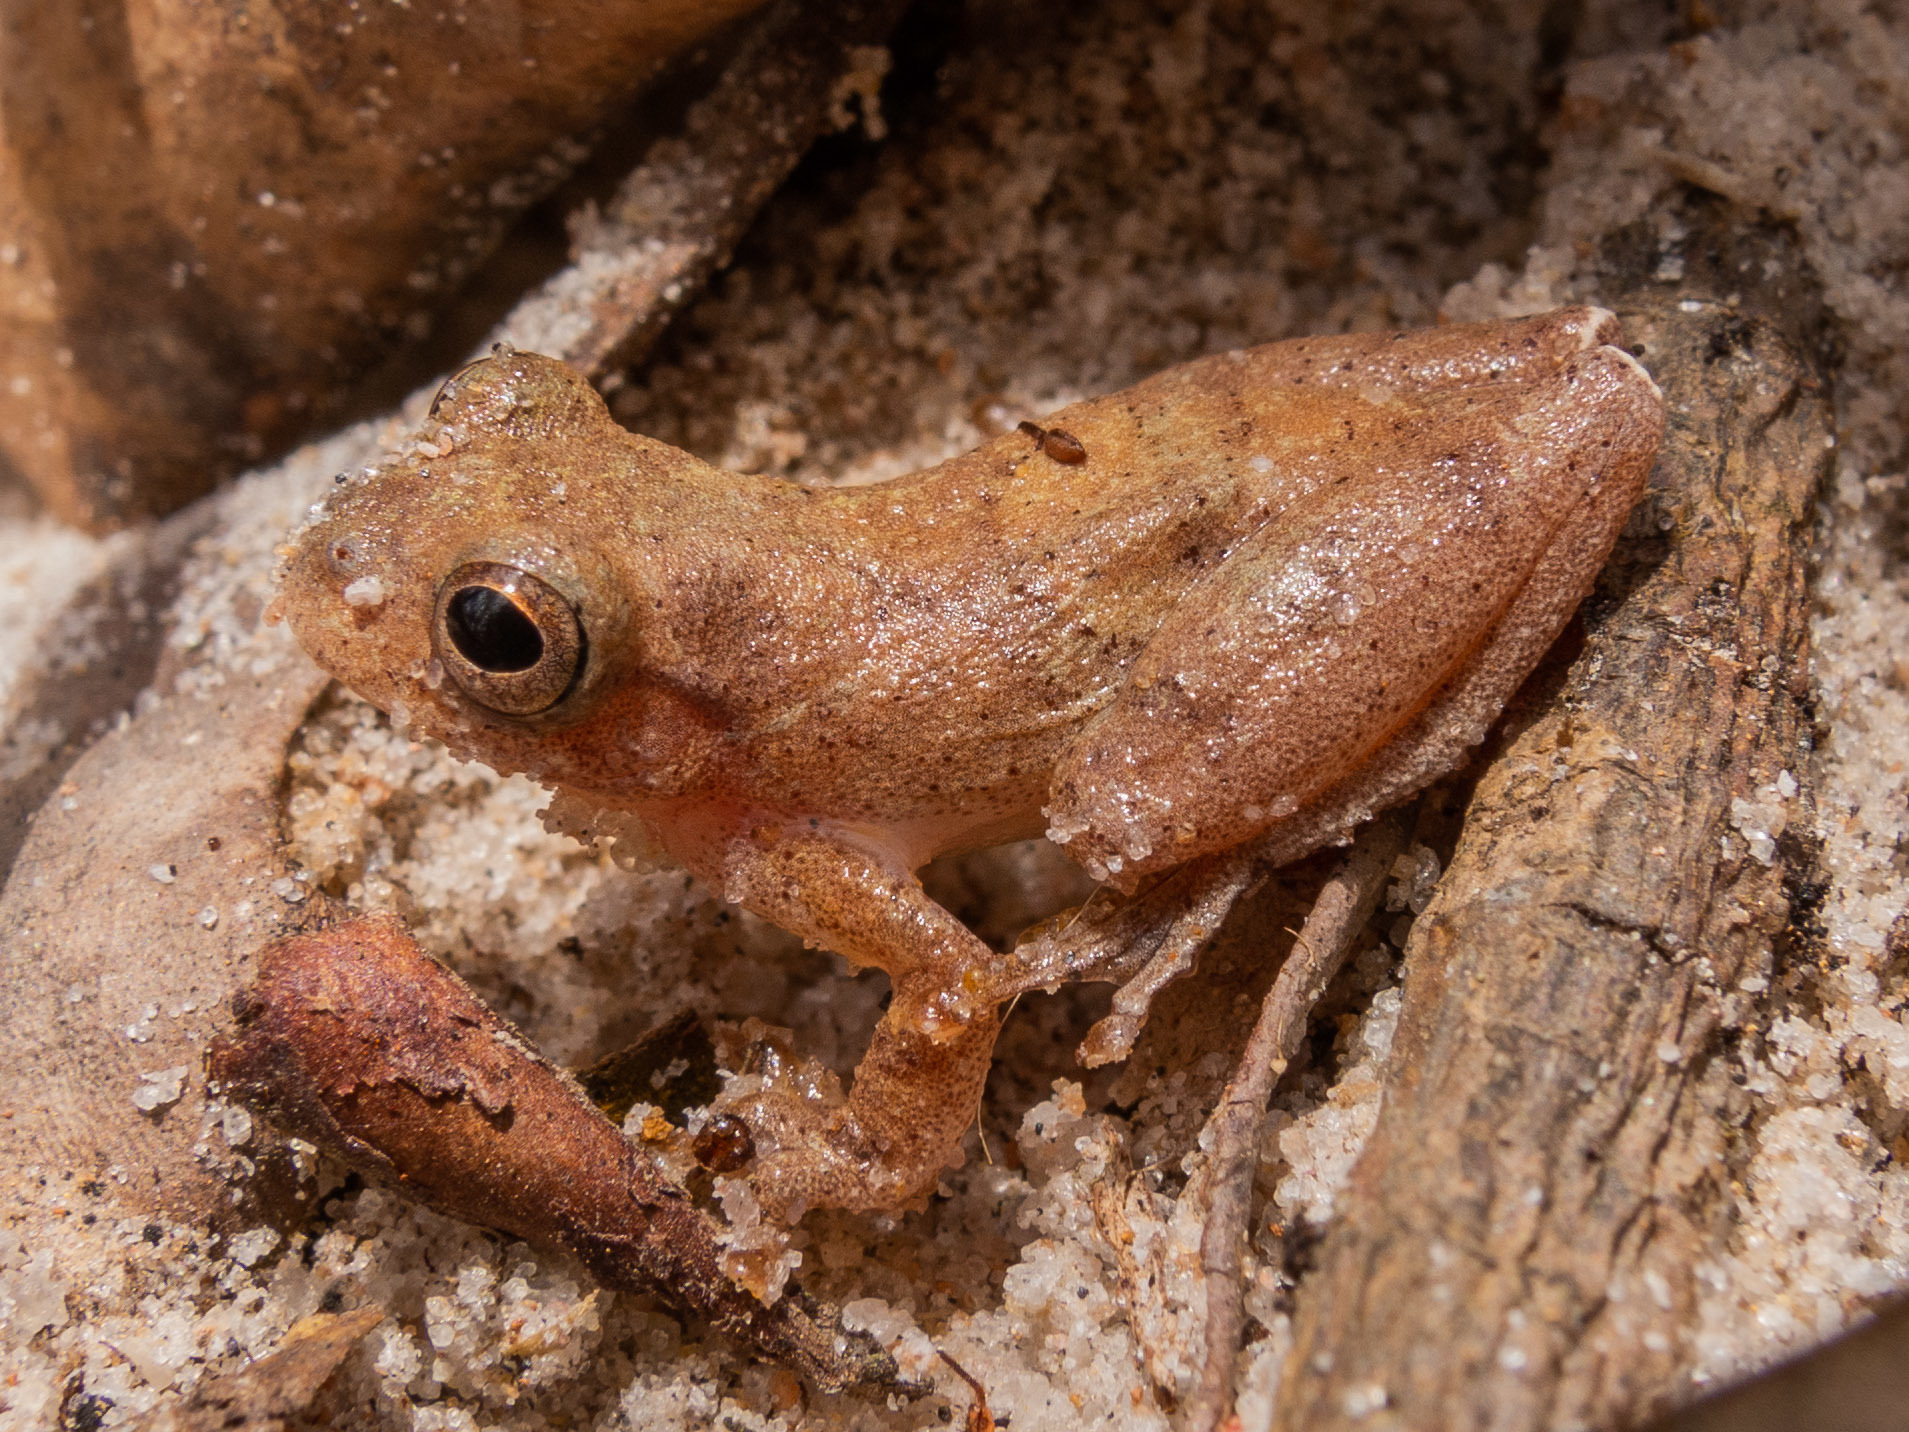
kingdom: Animalia
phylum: Chordata
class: Amphibia
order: Anura
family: Hylidae
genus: Dendropsophus
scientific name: Dendropsophus minutus
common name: Lesser treefrog
